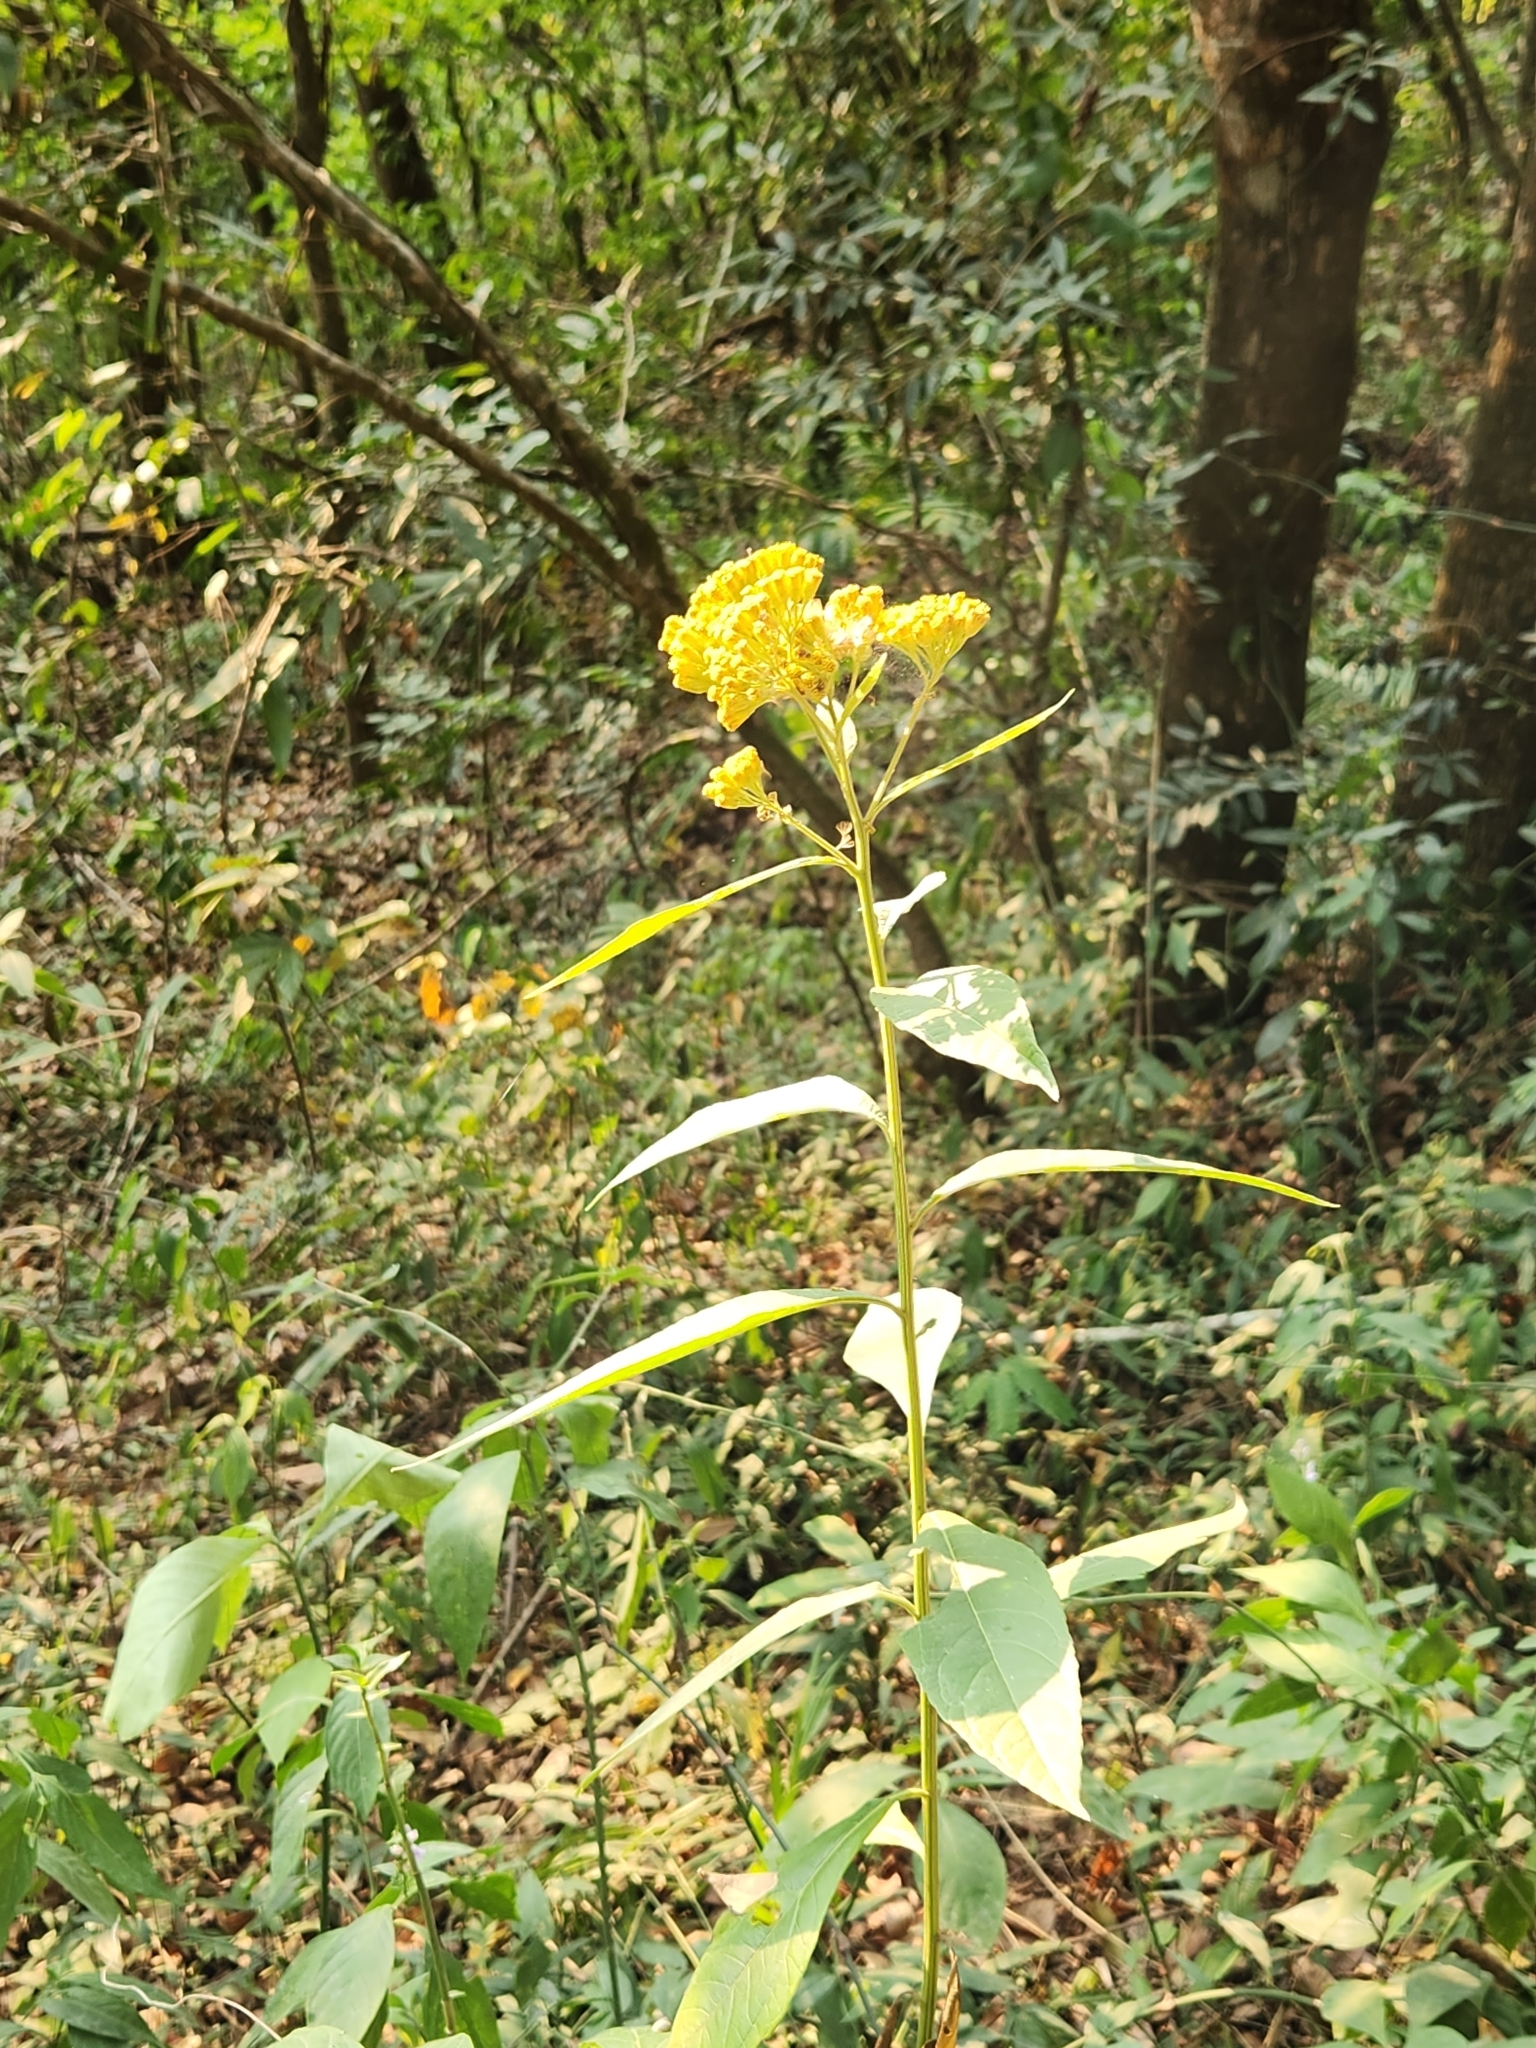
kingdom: Plantae
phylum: Tracheophyta
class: Magnoliopsida
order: Asterales
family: Asteraceae
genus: Neurolaena
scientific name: Neurolaena lobata
